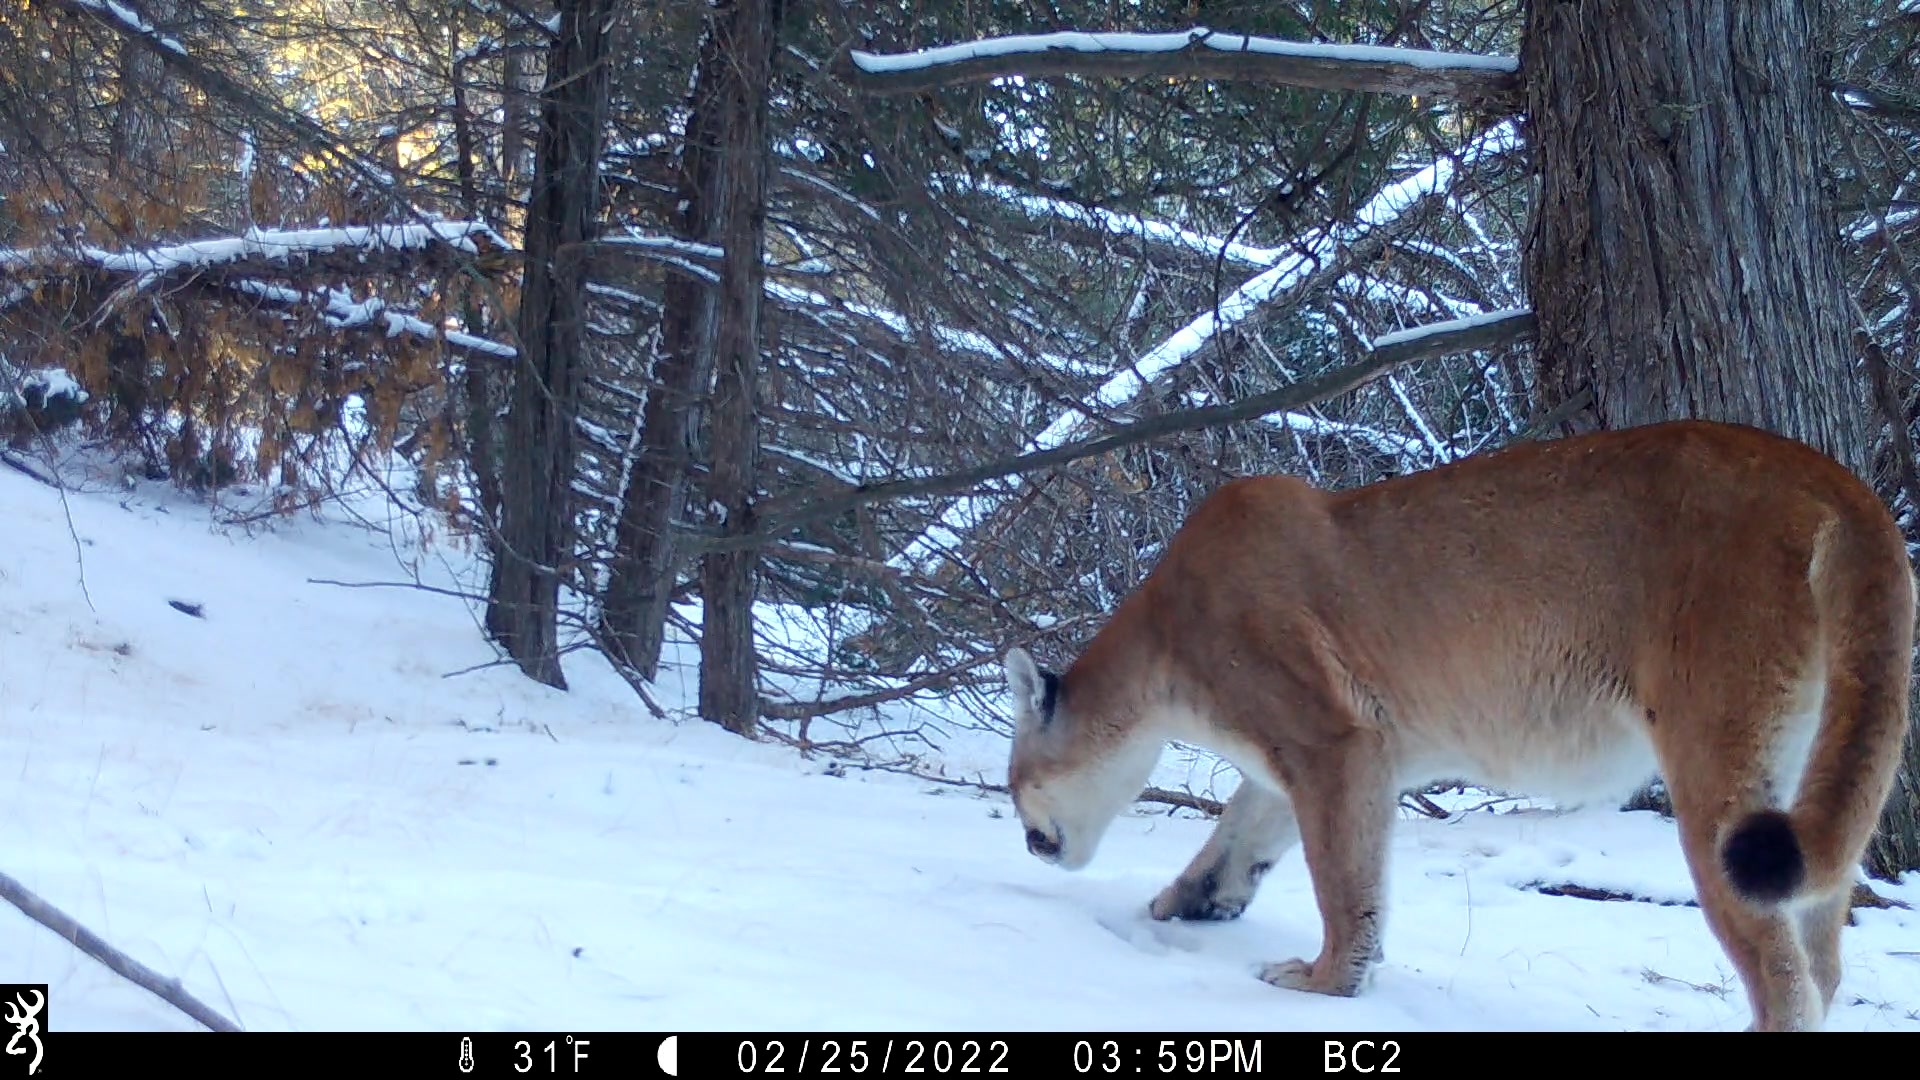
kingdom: Animalia
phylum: Chordata
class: Mammalia
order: Carnivora
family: Felidae
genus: Puma
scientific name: Puma concolor
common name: Puma
